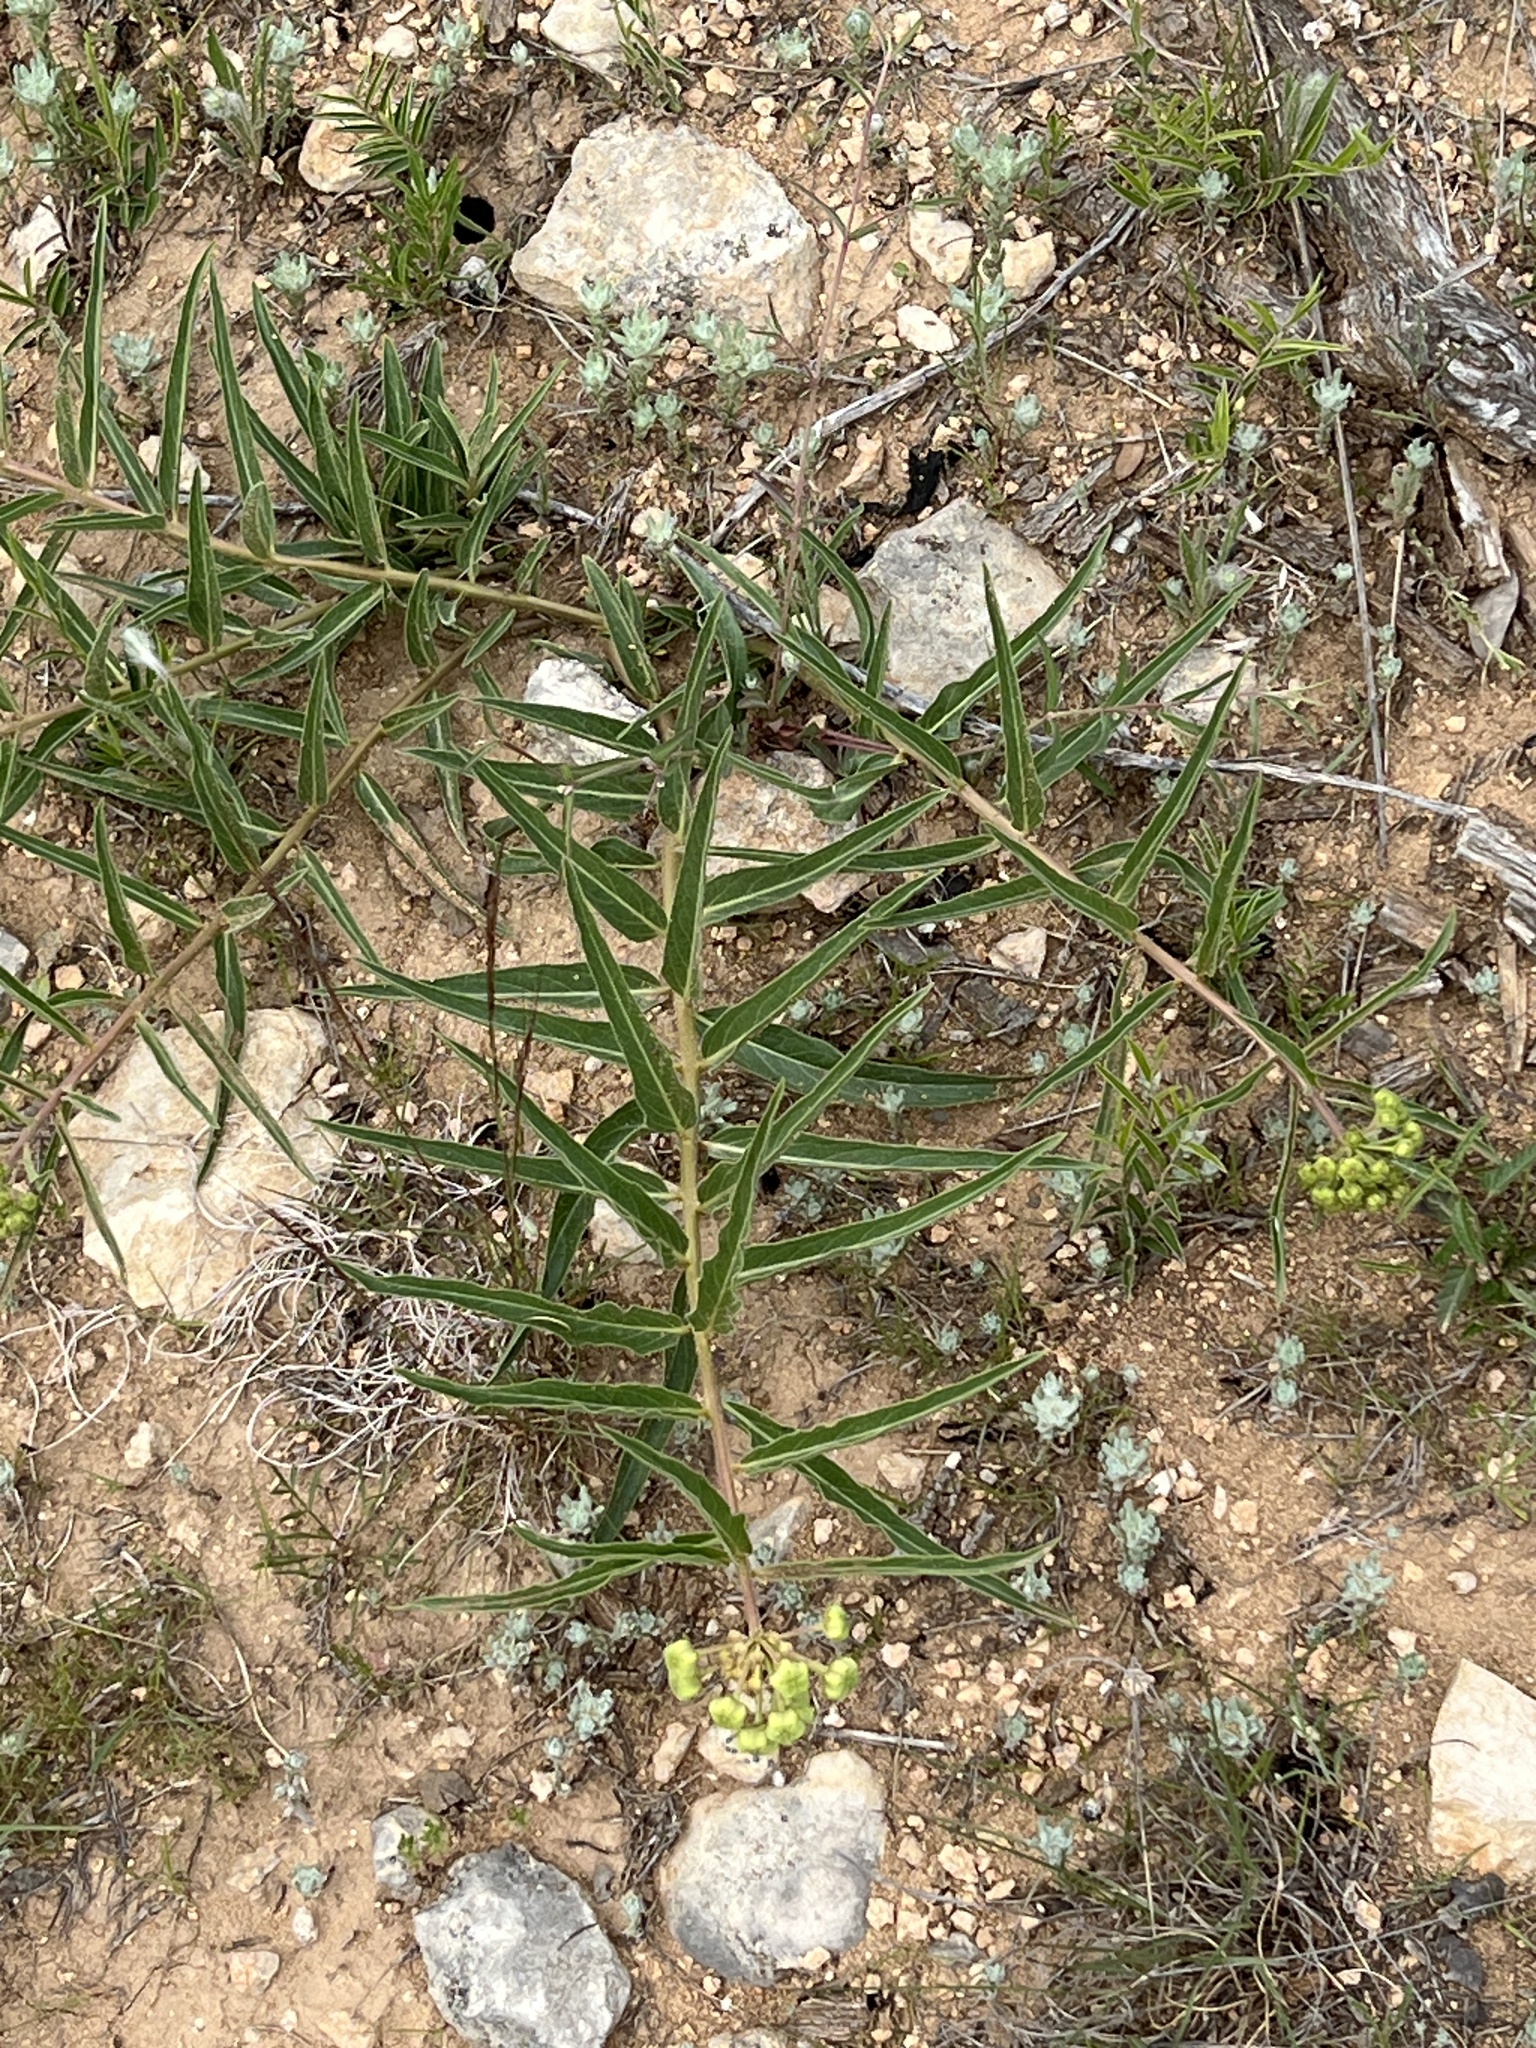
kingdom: Plantae
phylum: Tracheophyta
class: Magnoliopsida
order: Gentianales
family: Apocynaceae
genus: Asclepias
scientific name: Asclepias asperula
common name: Antelope horns
